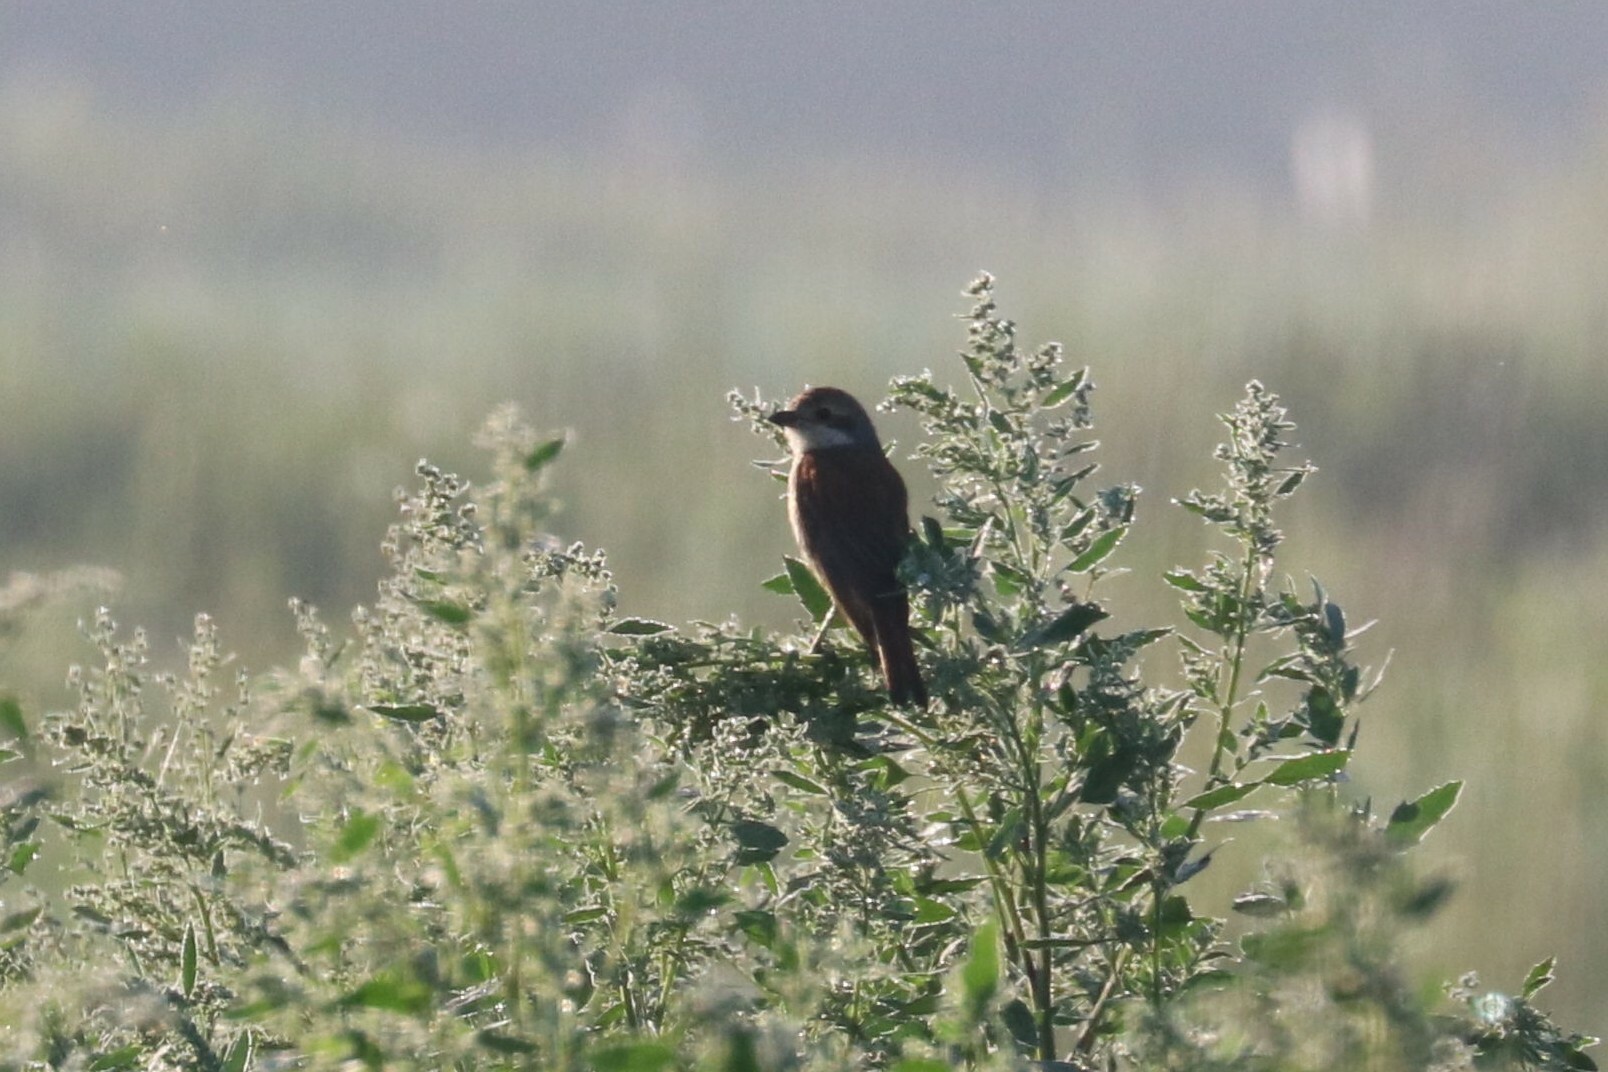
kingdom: Animalia
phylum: Chordata
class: Aves
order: Passeriformes
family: Laniidae
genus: Lanius
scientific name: Lanius collurio
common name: Red-backed shrike
